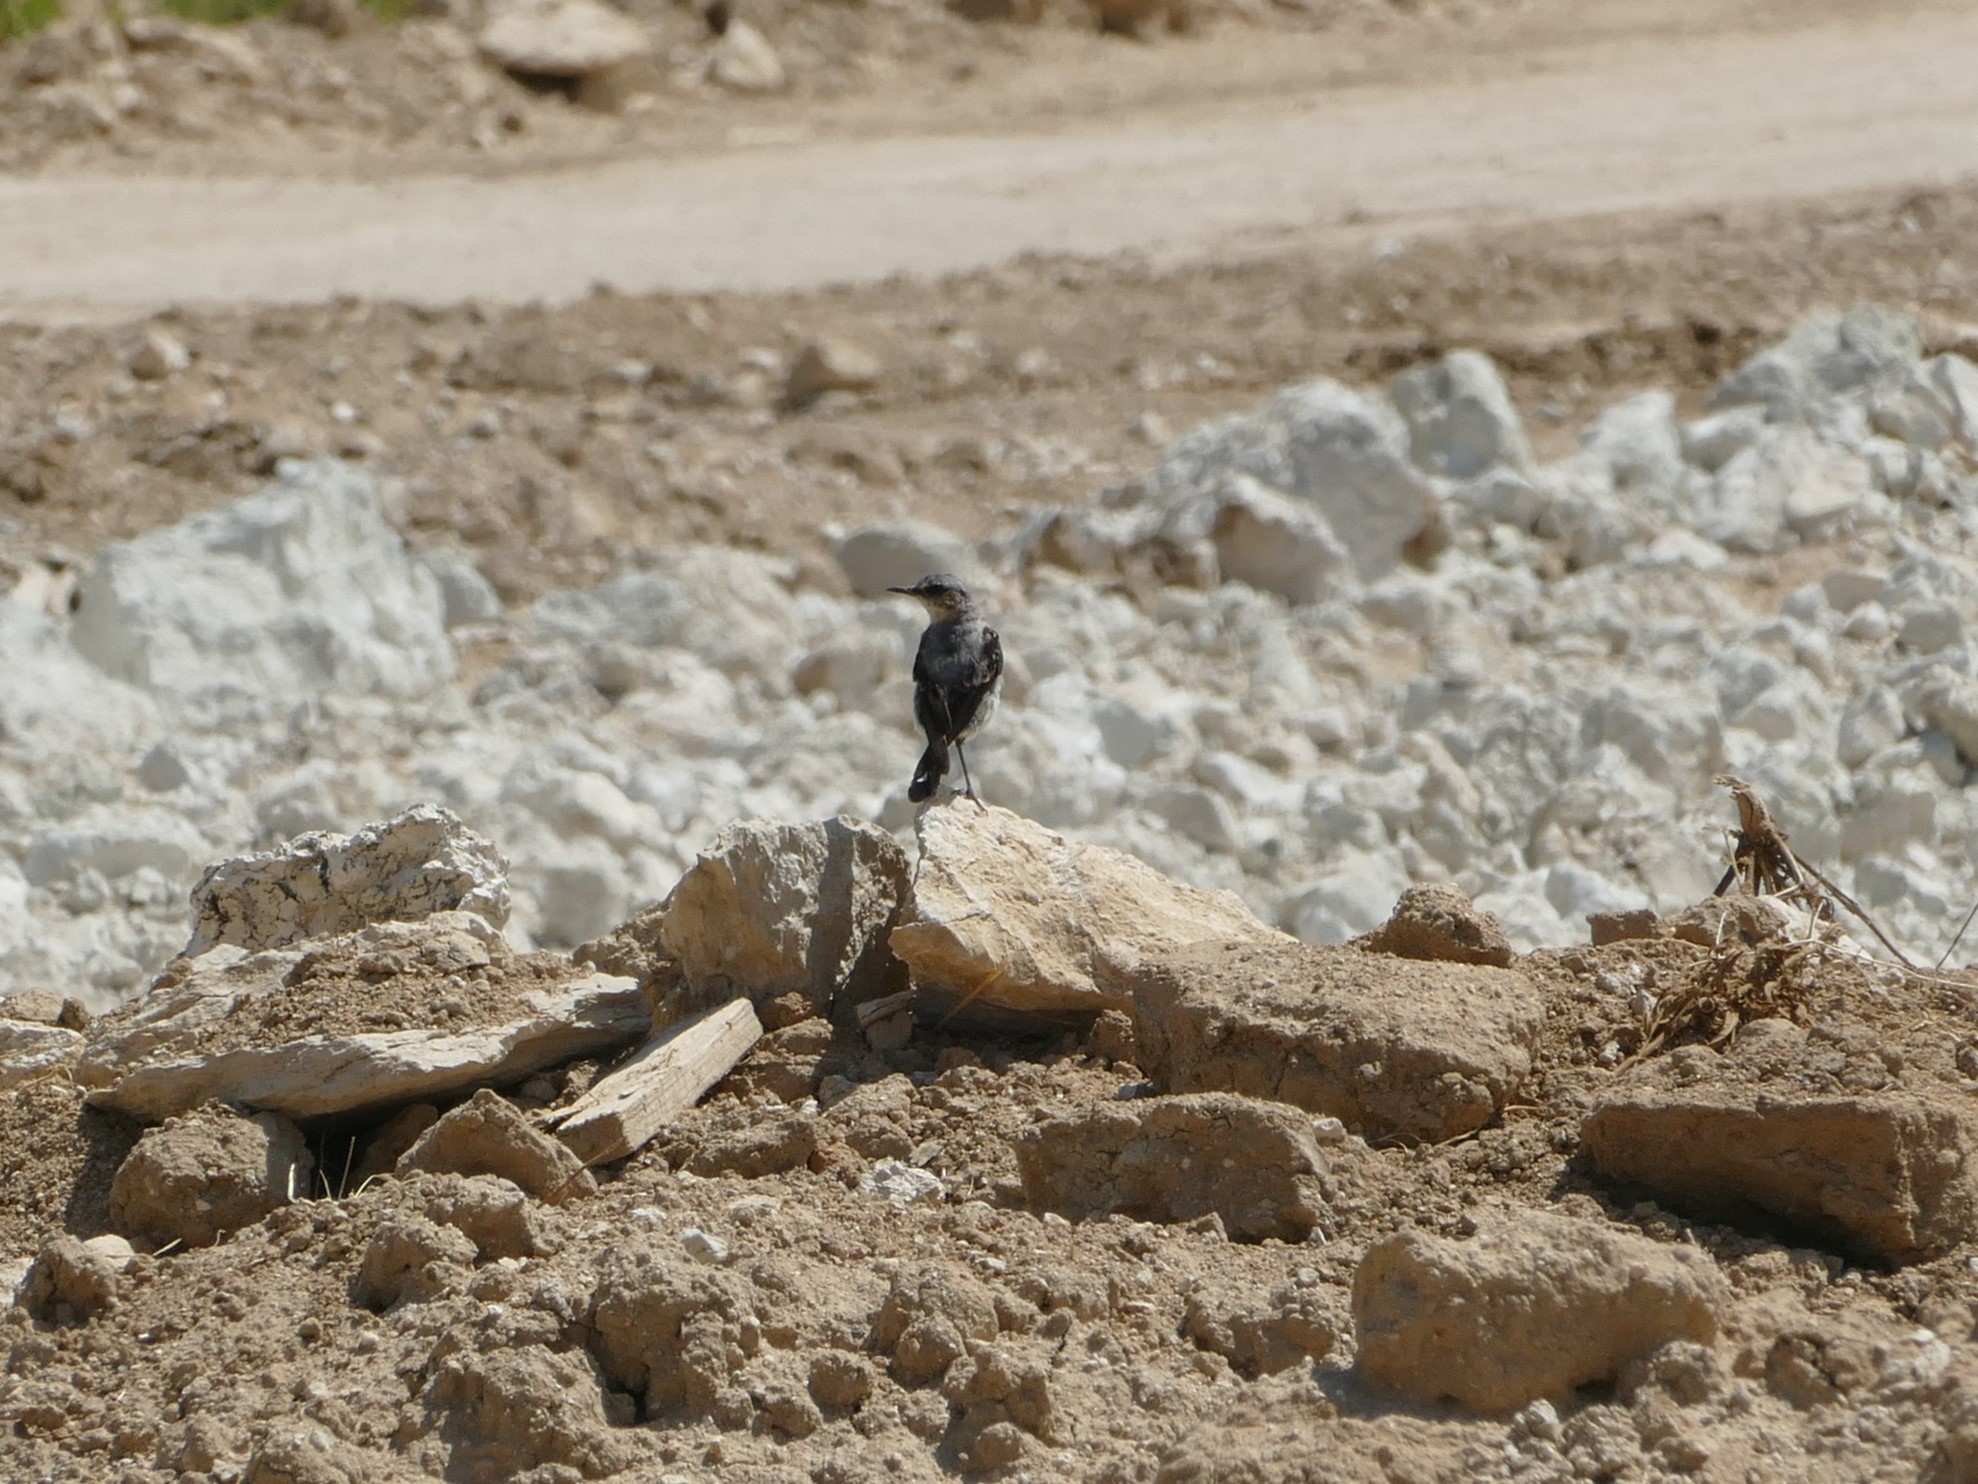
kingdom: Animalia
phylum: Chordata
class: Aves
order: Passeriformes
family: Muscicapidae
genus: Oenanthe
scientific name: Oenanthe oenanthe
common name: Northern wheatear
